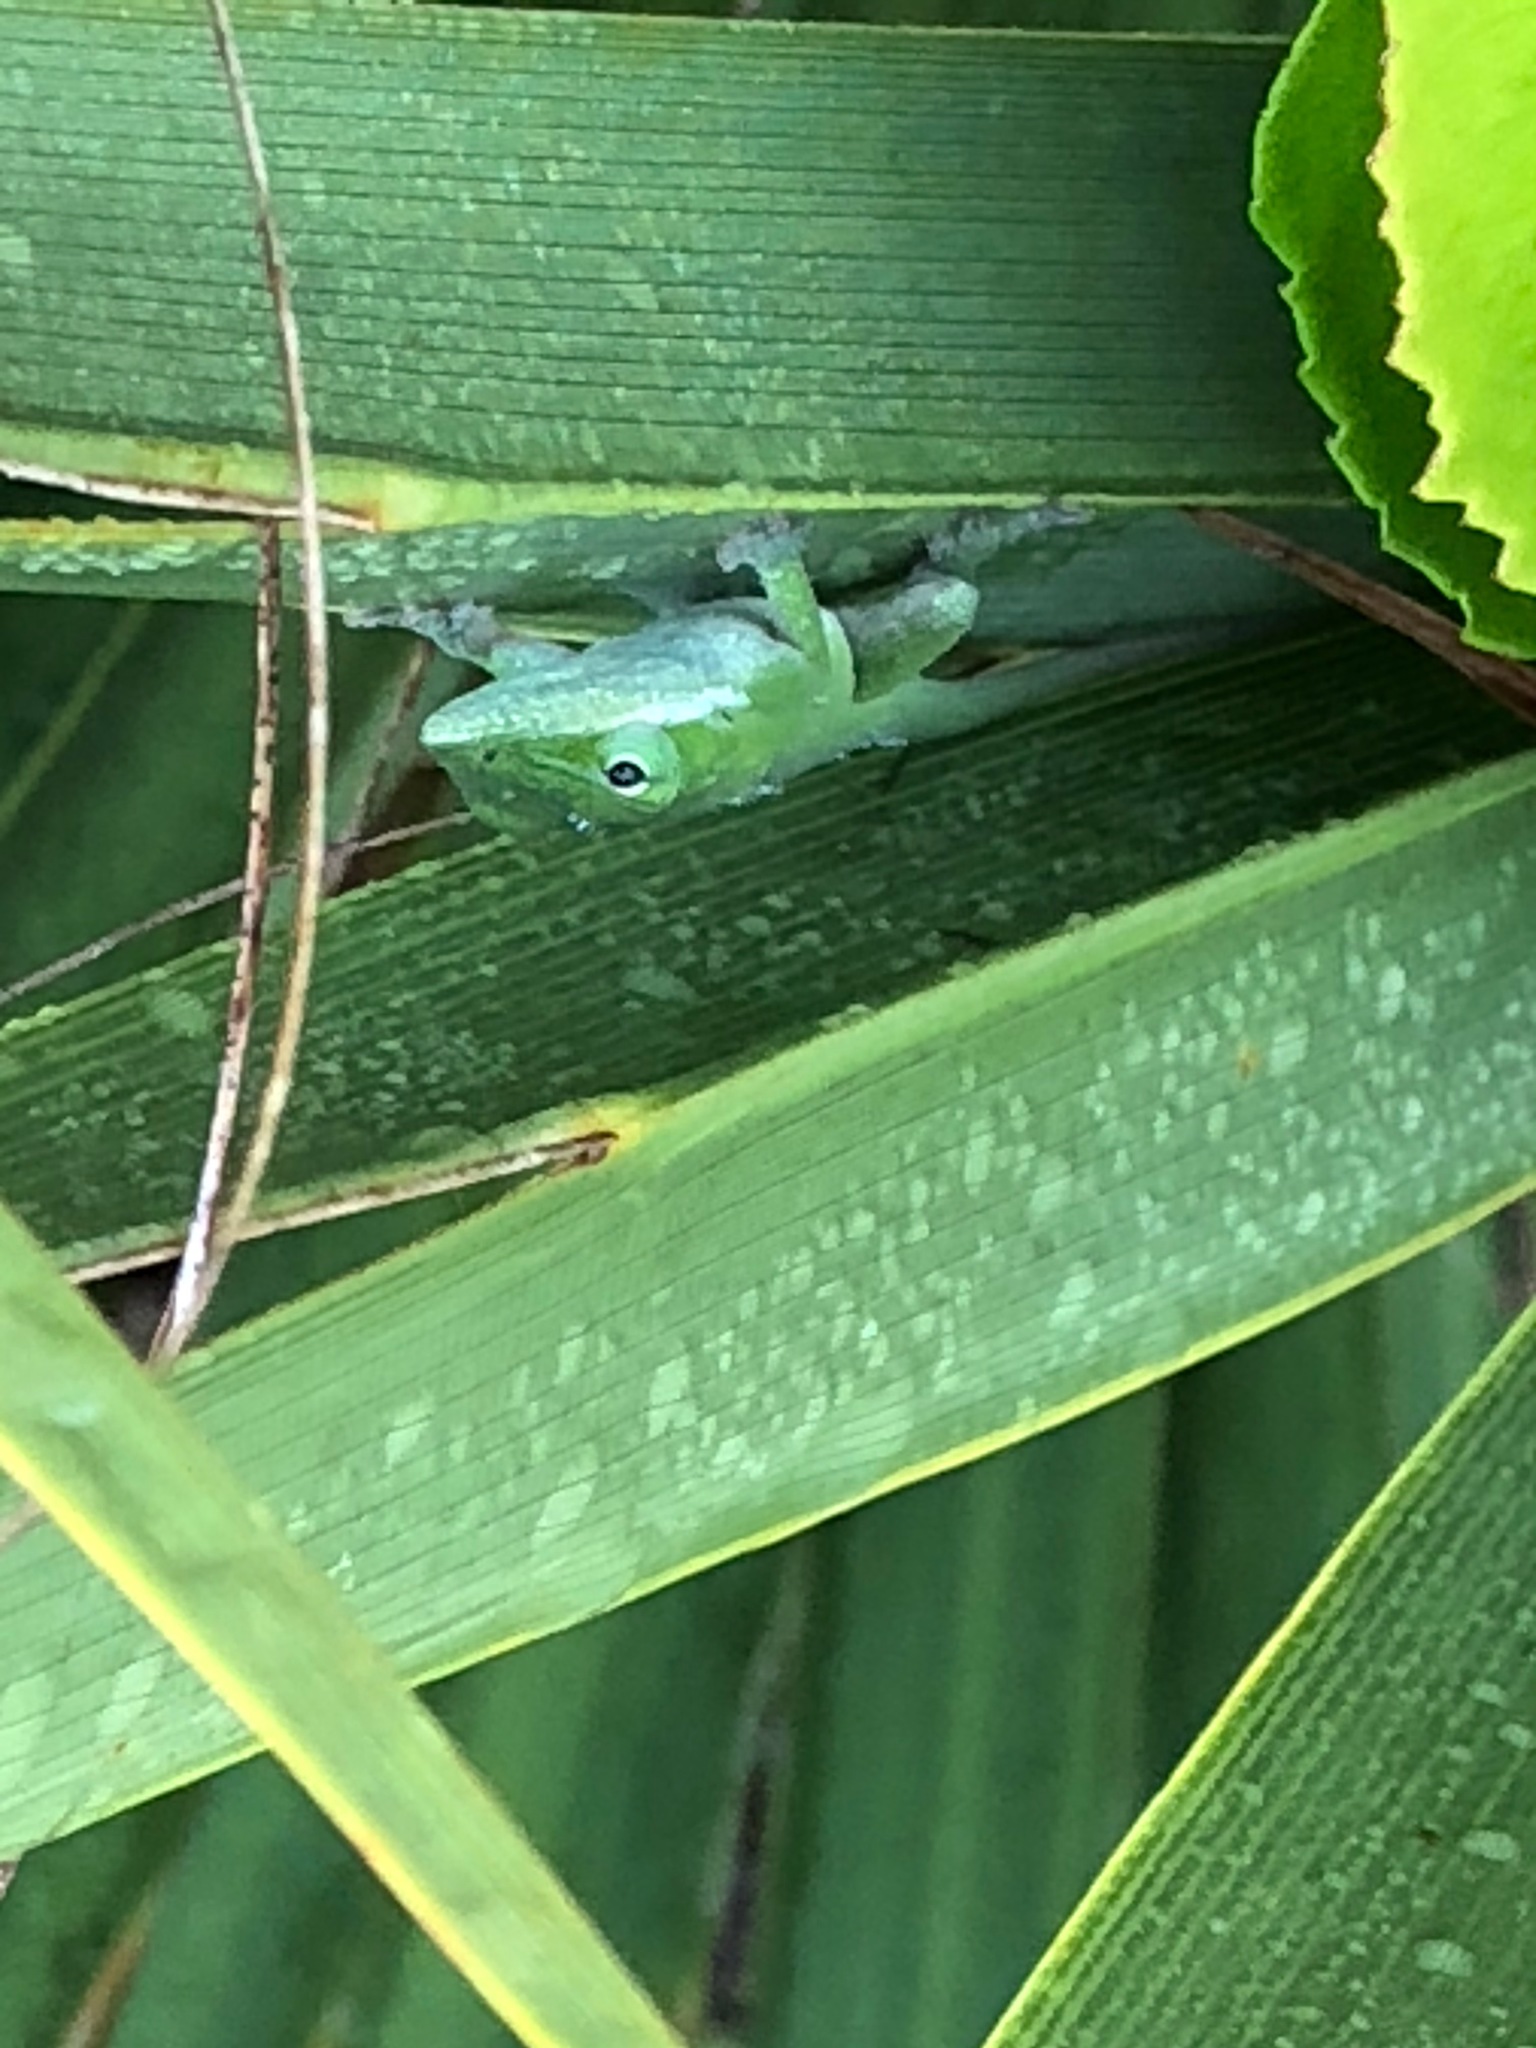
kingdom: Animalia
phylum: Chordata
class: Squamata
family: Dactyloidae
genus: Anolis
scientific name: Anolis carolinensis
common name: Green anole
